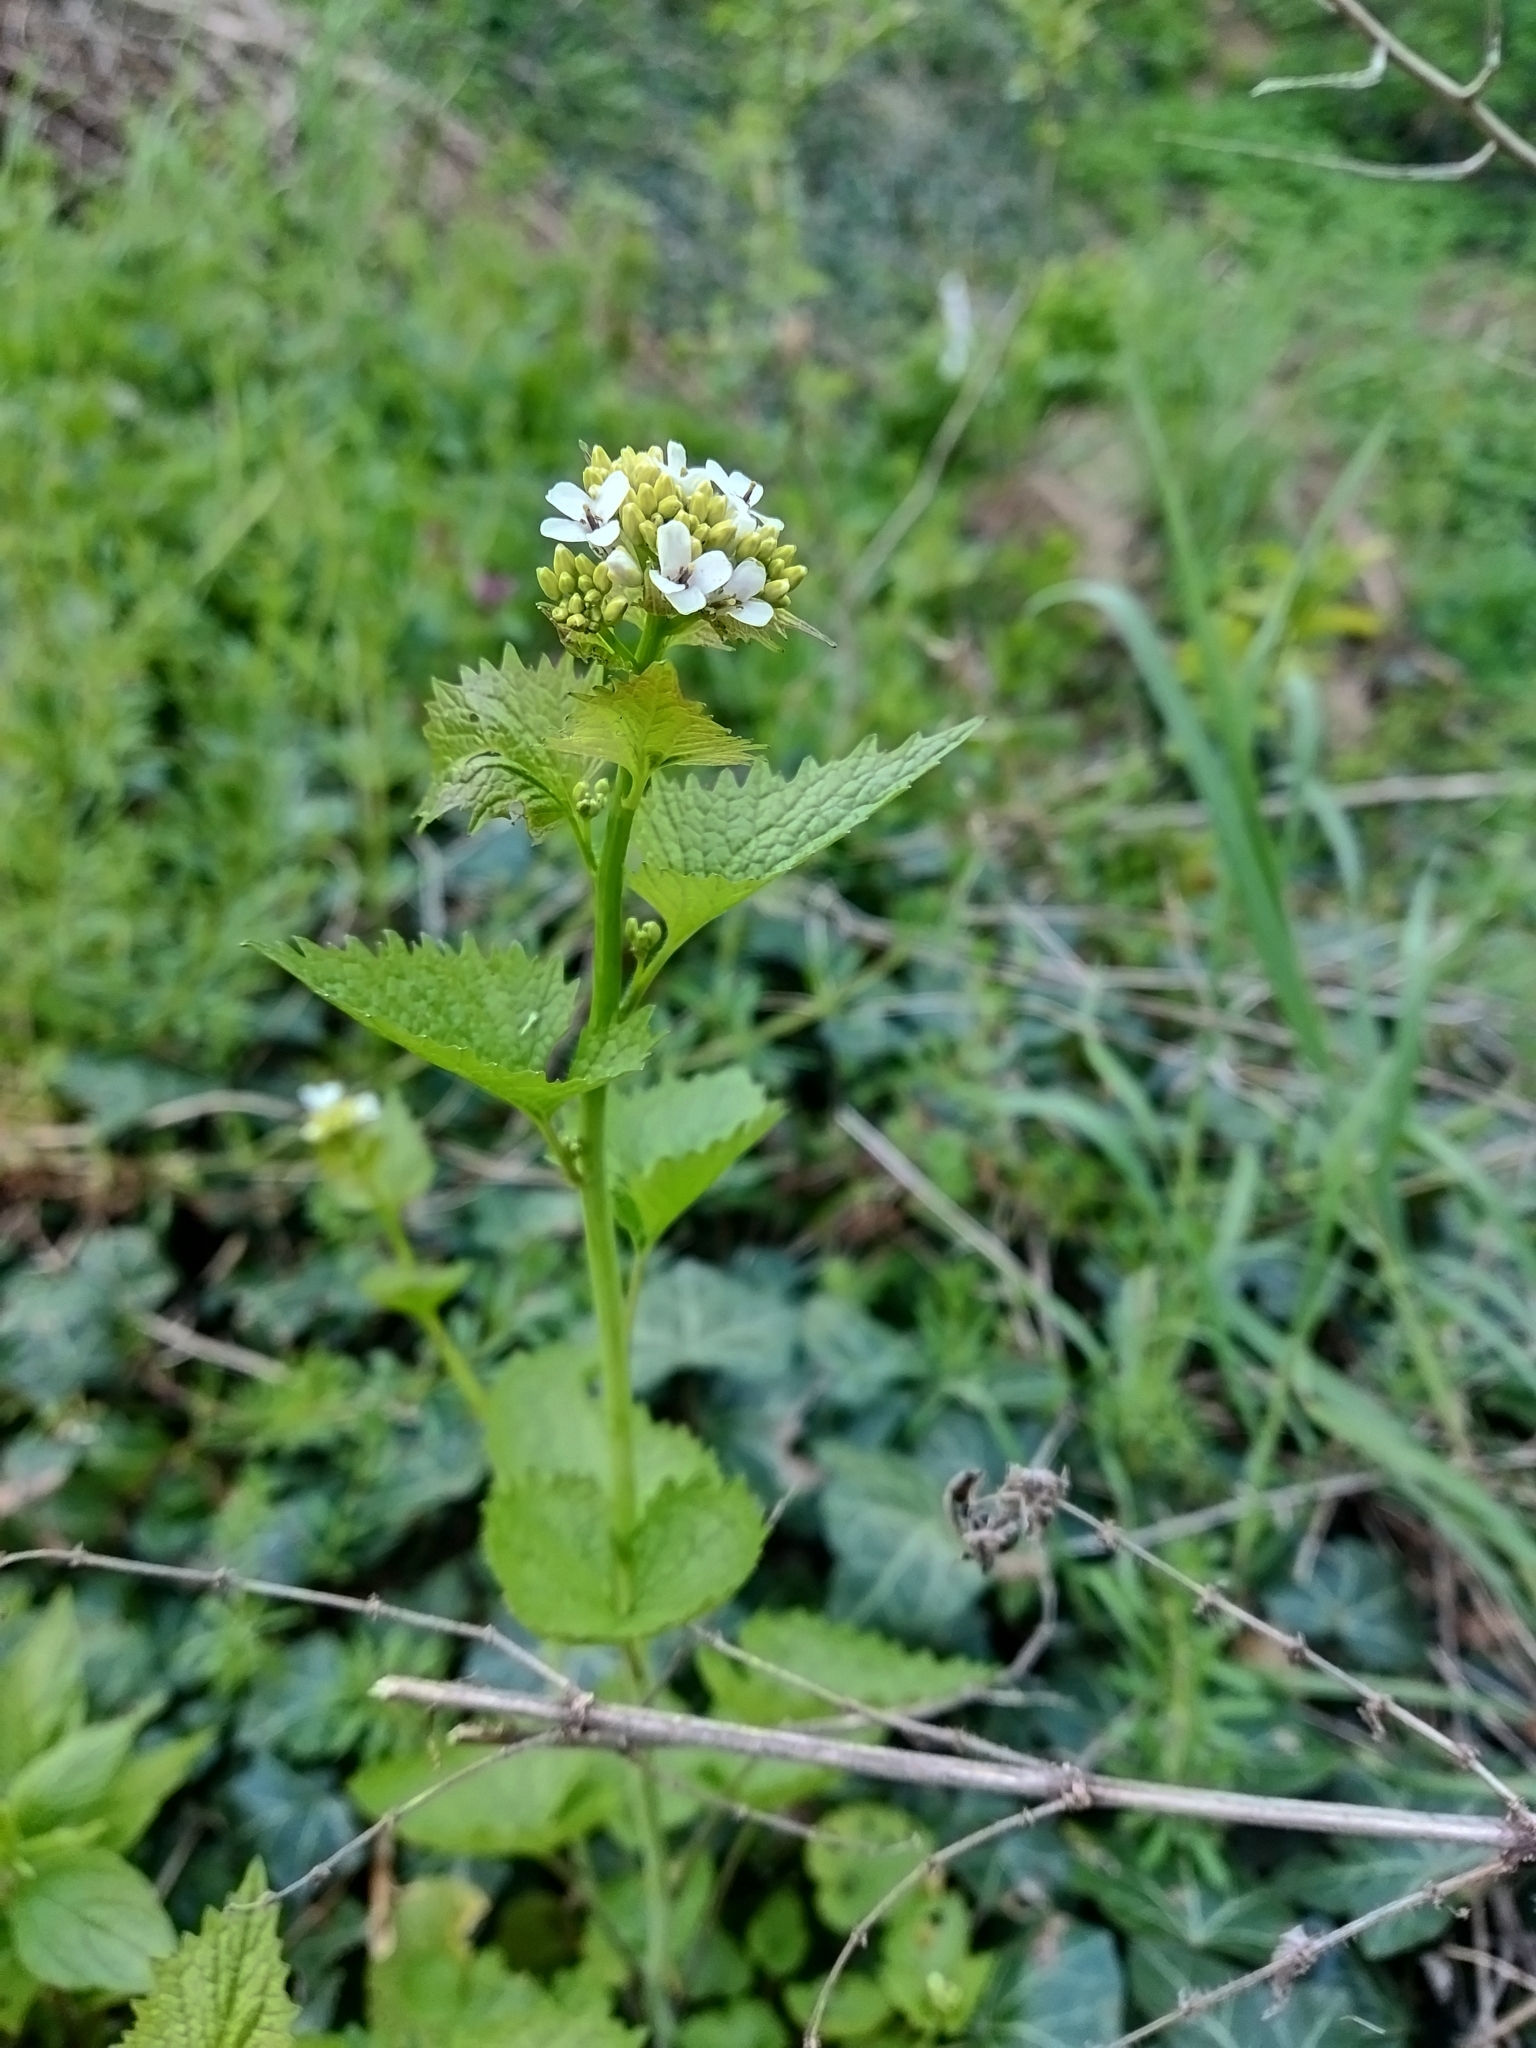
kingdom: Plantae
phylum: Tracheophyta
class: Magnoliopsida
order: Brassicales
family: Brassicaceae
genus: Alliaria
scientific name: Alliaria petiolata
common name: Garlic mustard
